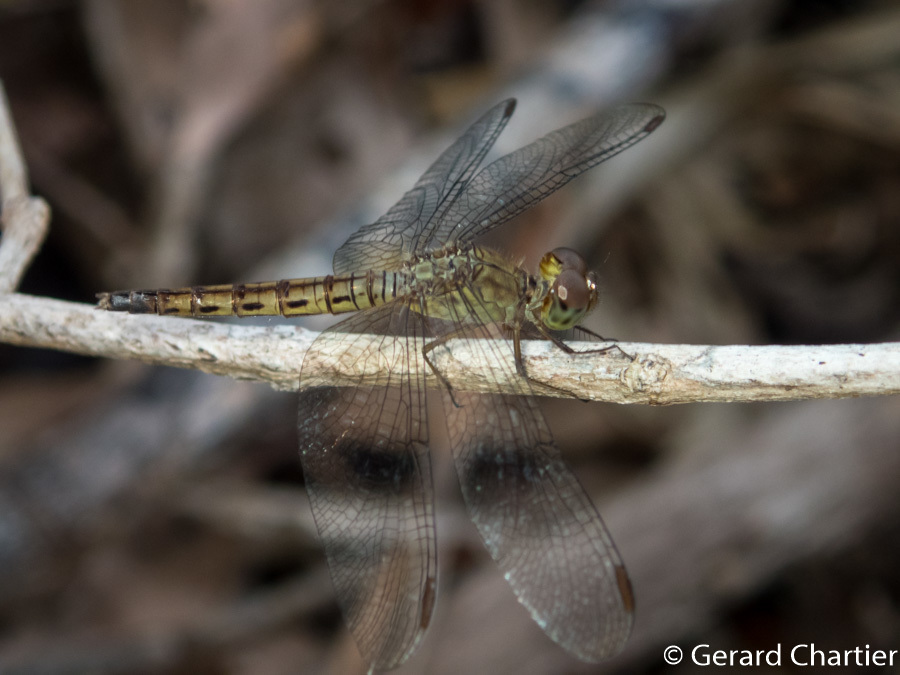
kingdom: Animalia
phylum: Arthropoda
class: Insecta
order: Odonata
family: Libellulidae
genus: Neurothemis
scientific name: Neurothemis fluctuans
